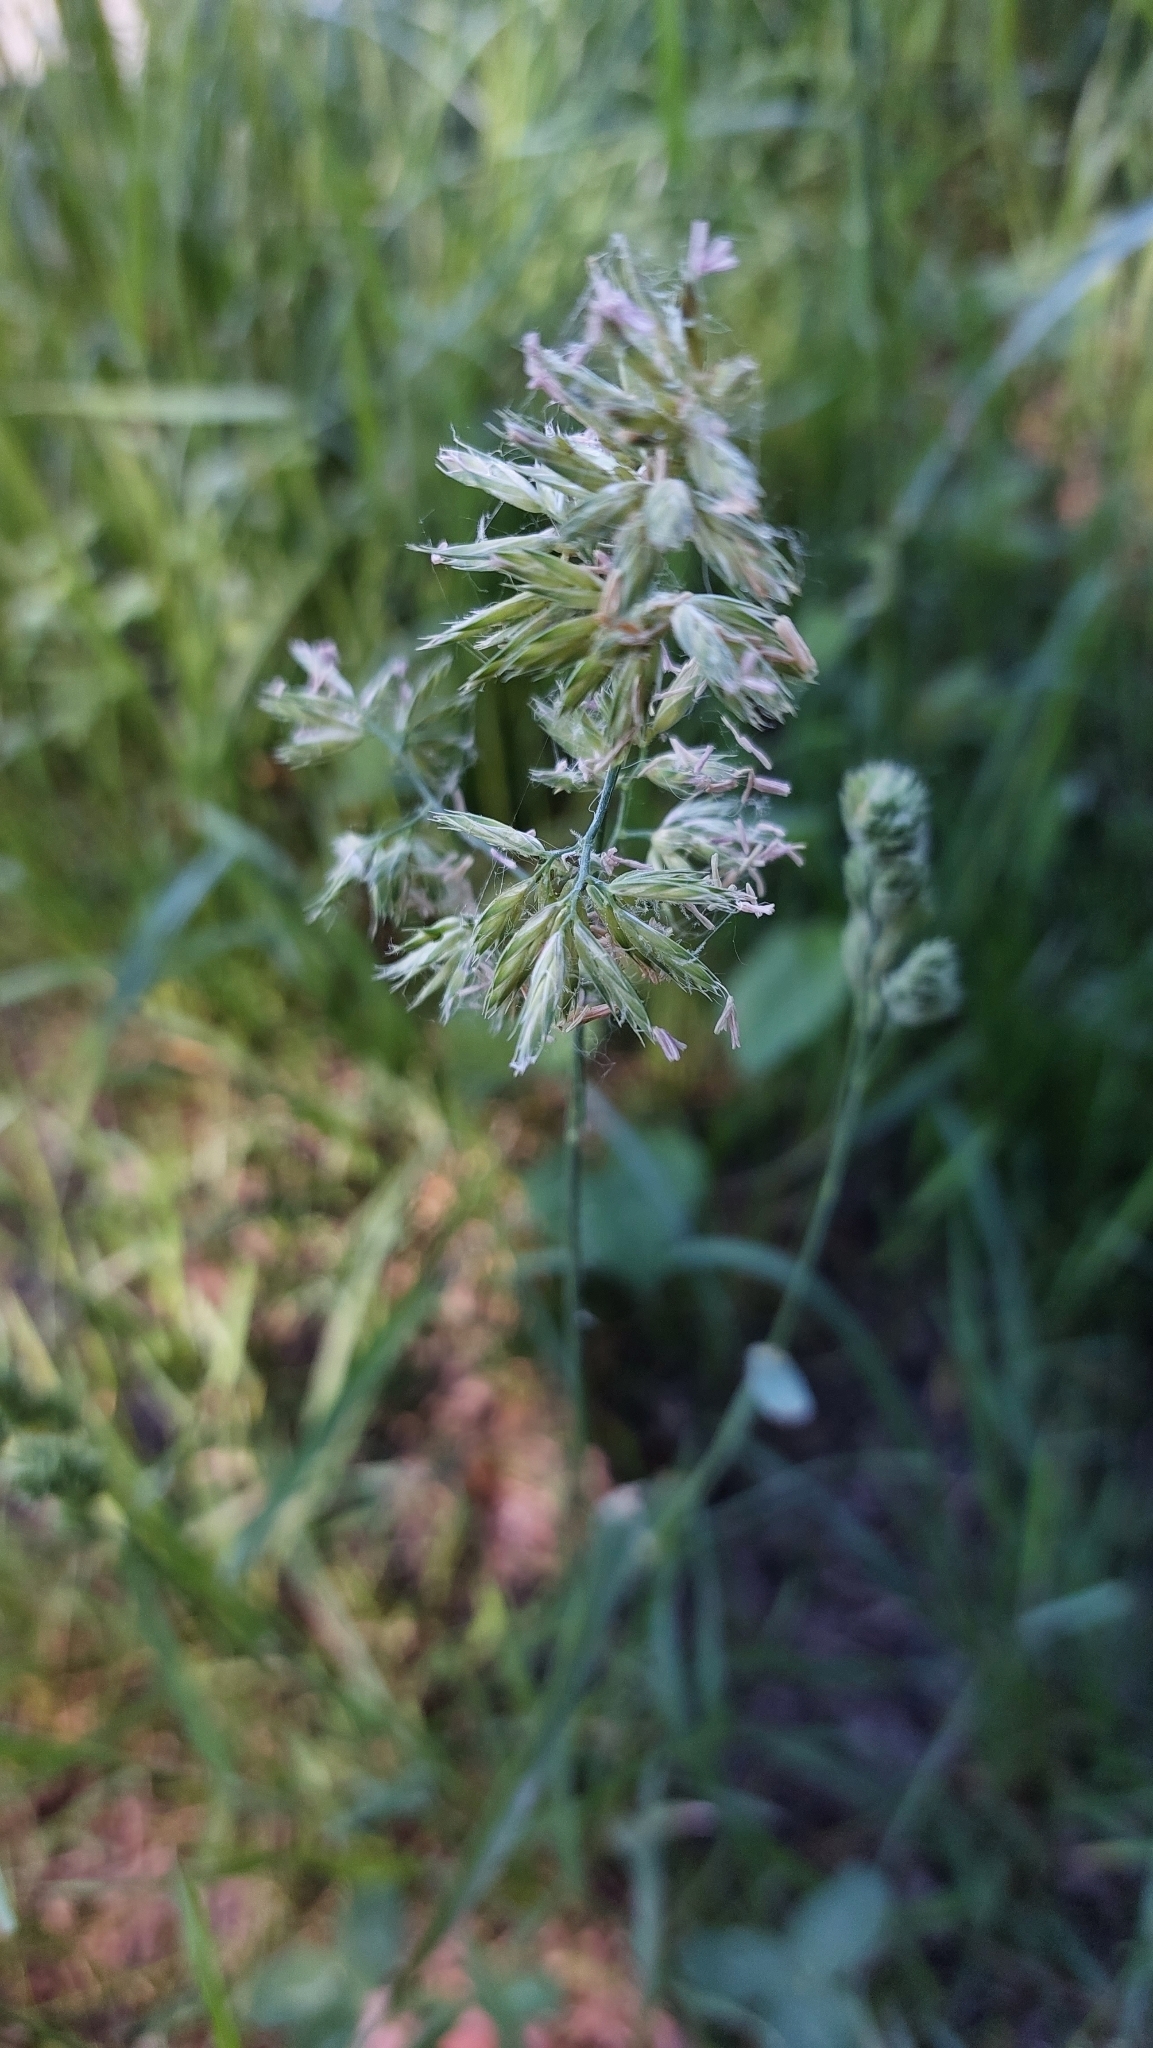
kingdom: Plantae
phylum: Tracheophyta
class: Liliopsida
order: Poales
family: Poaceae
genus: Dactylis
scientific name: Dactylis glomerata
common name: Orchardgrass
